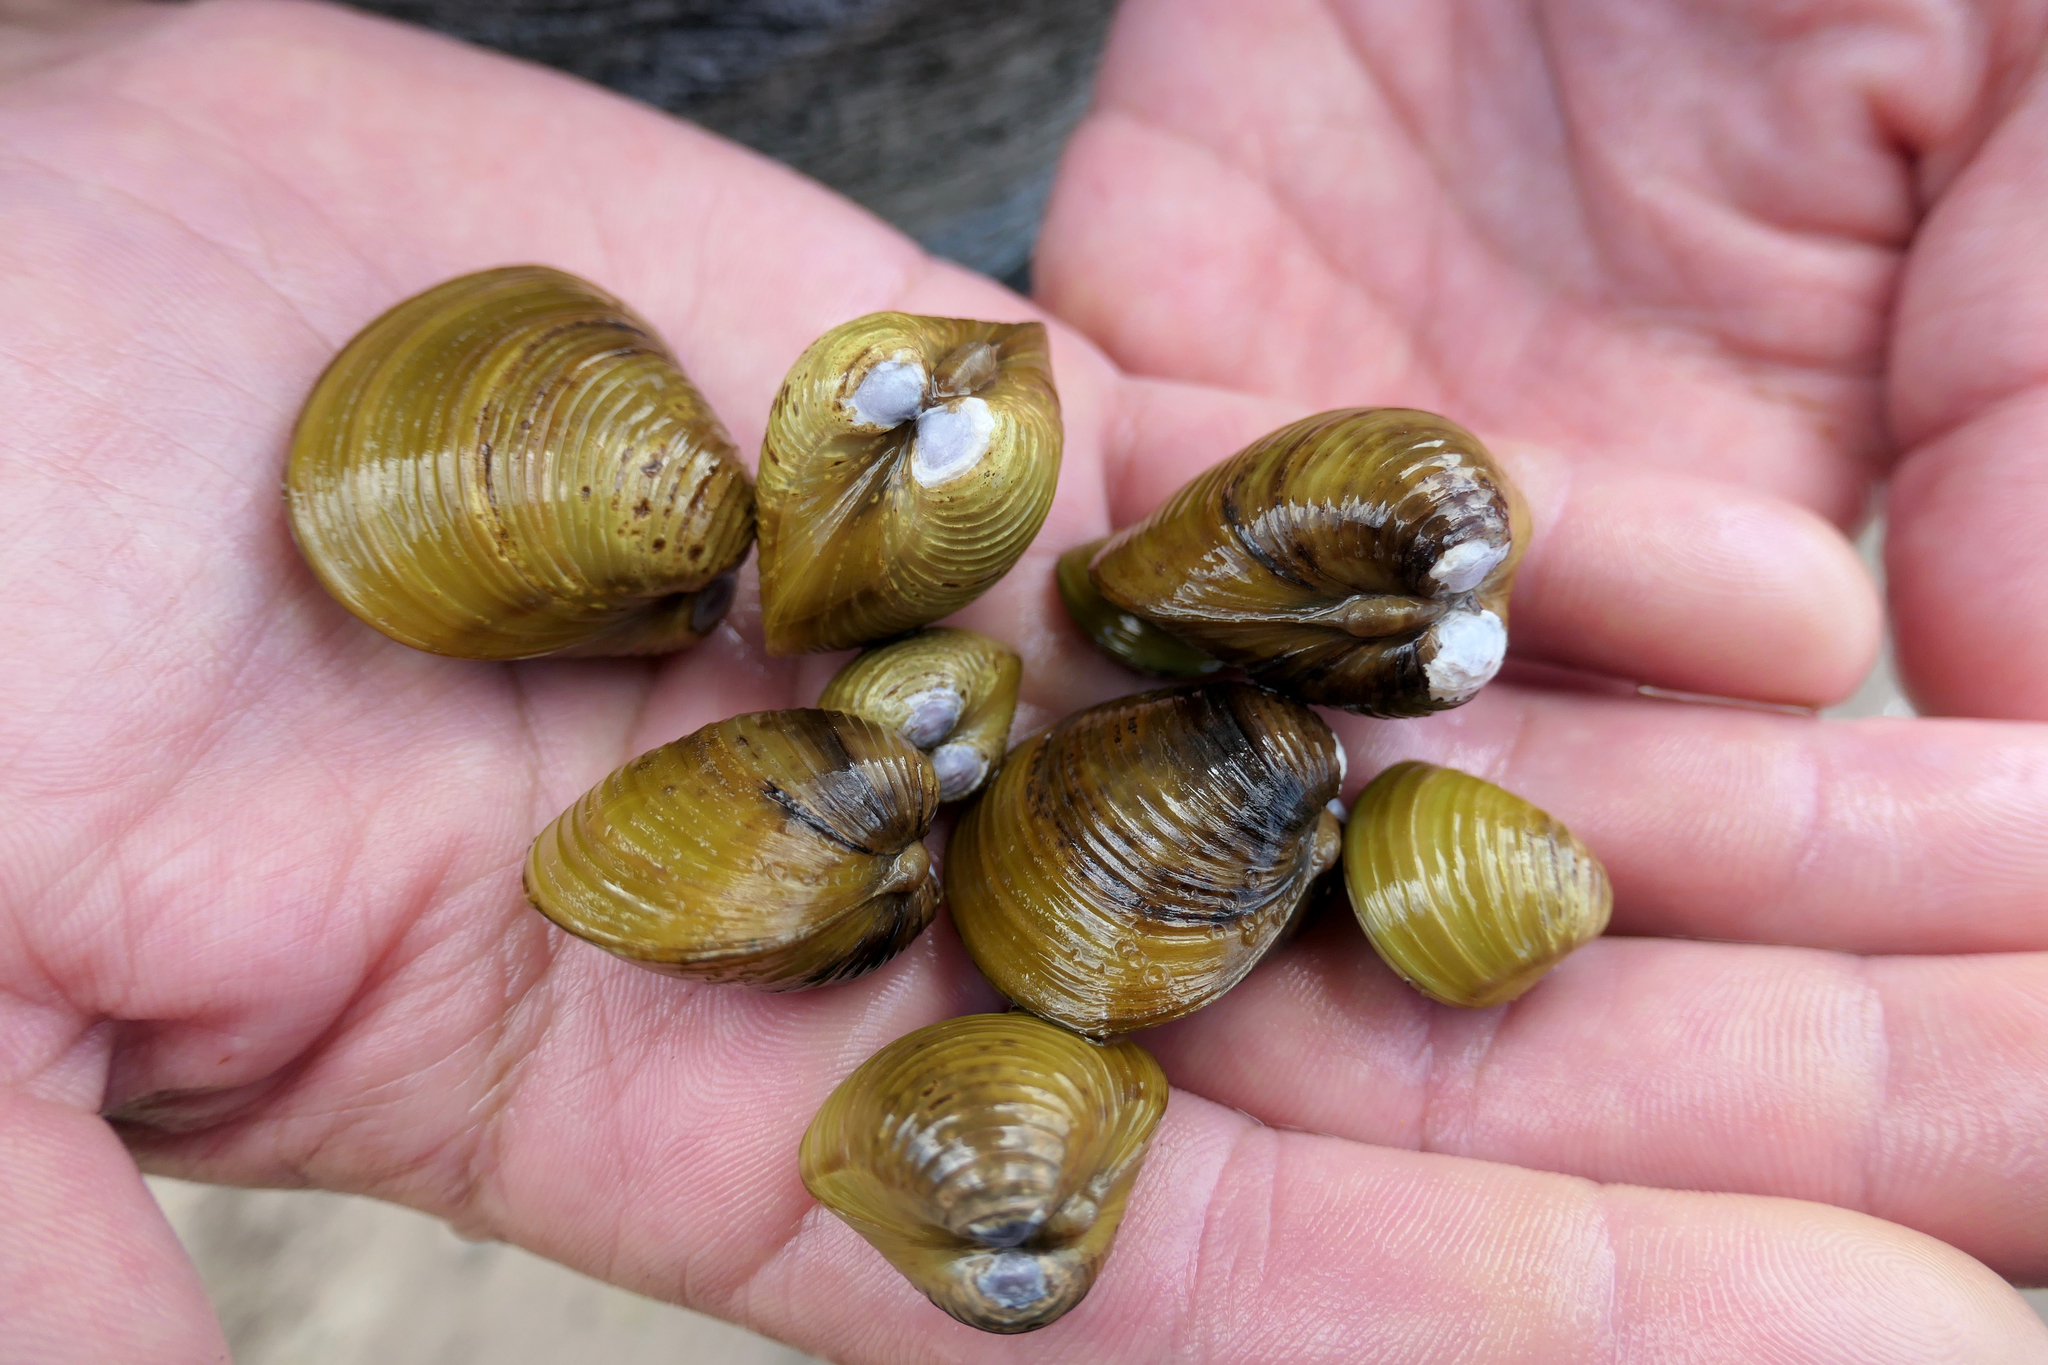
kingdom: Animalia
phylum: Mollusca
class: Bivalvia
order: Venerida
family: Cyrenidae
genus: Corbicula
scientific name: Corbicula fluminea
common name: Asian clam
